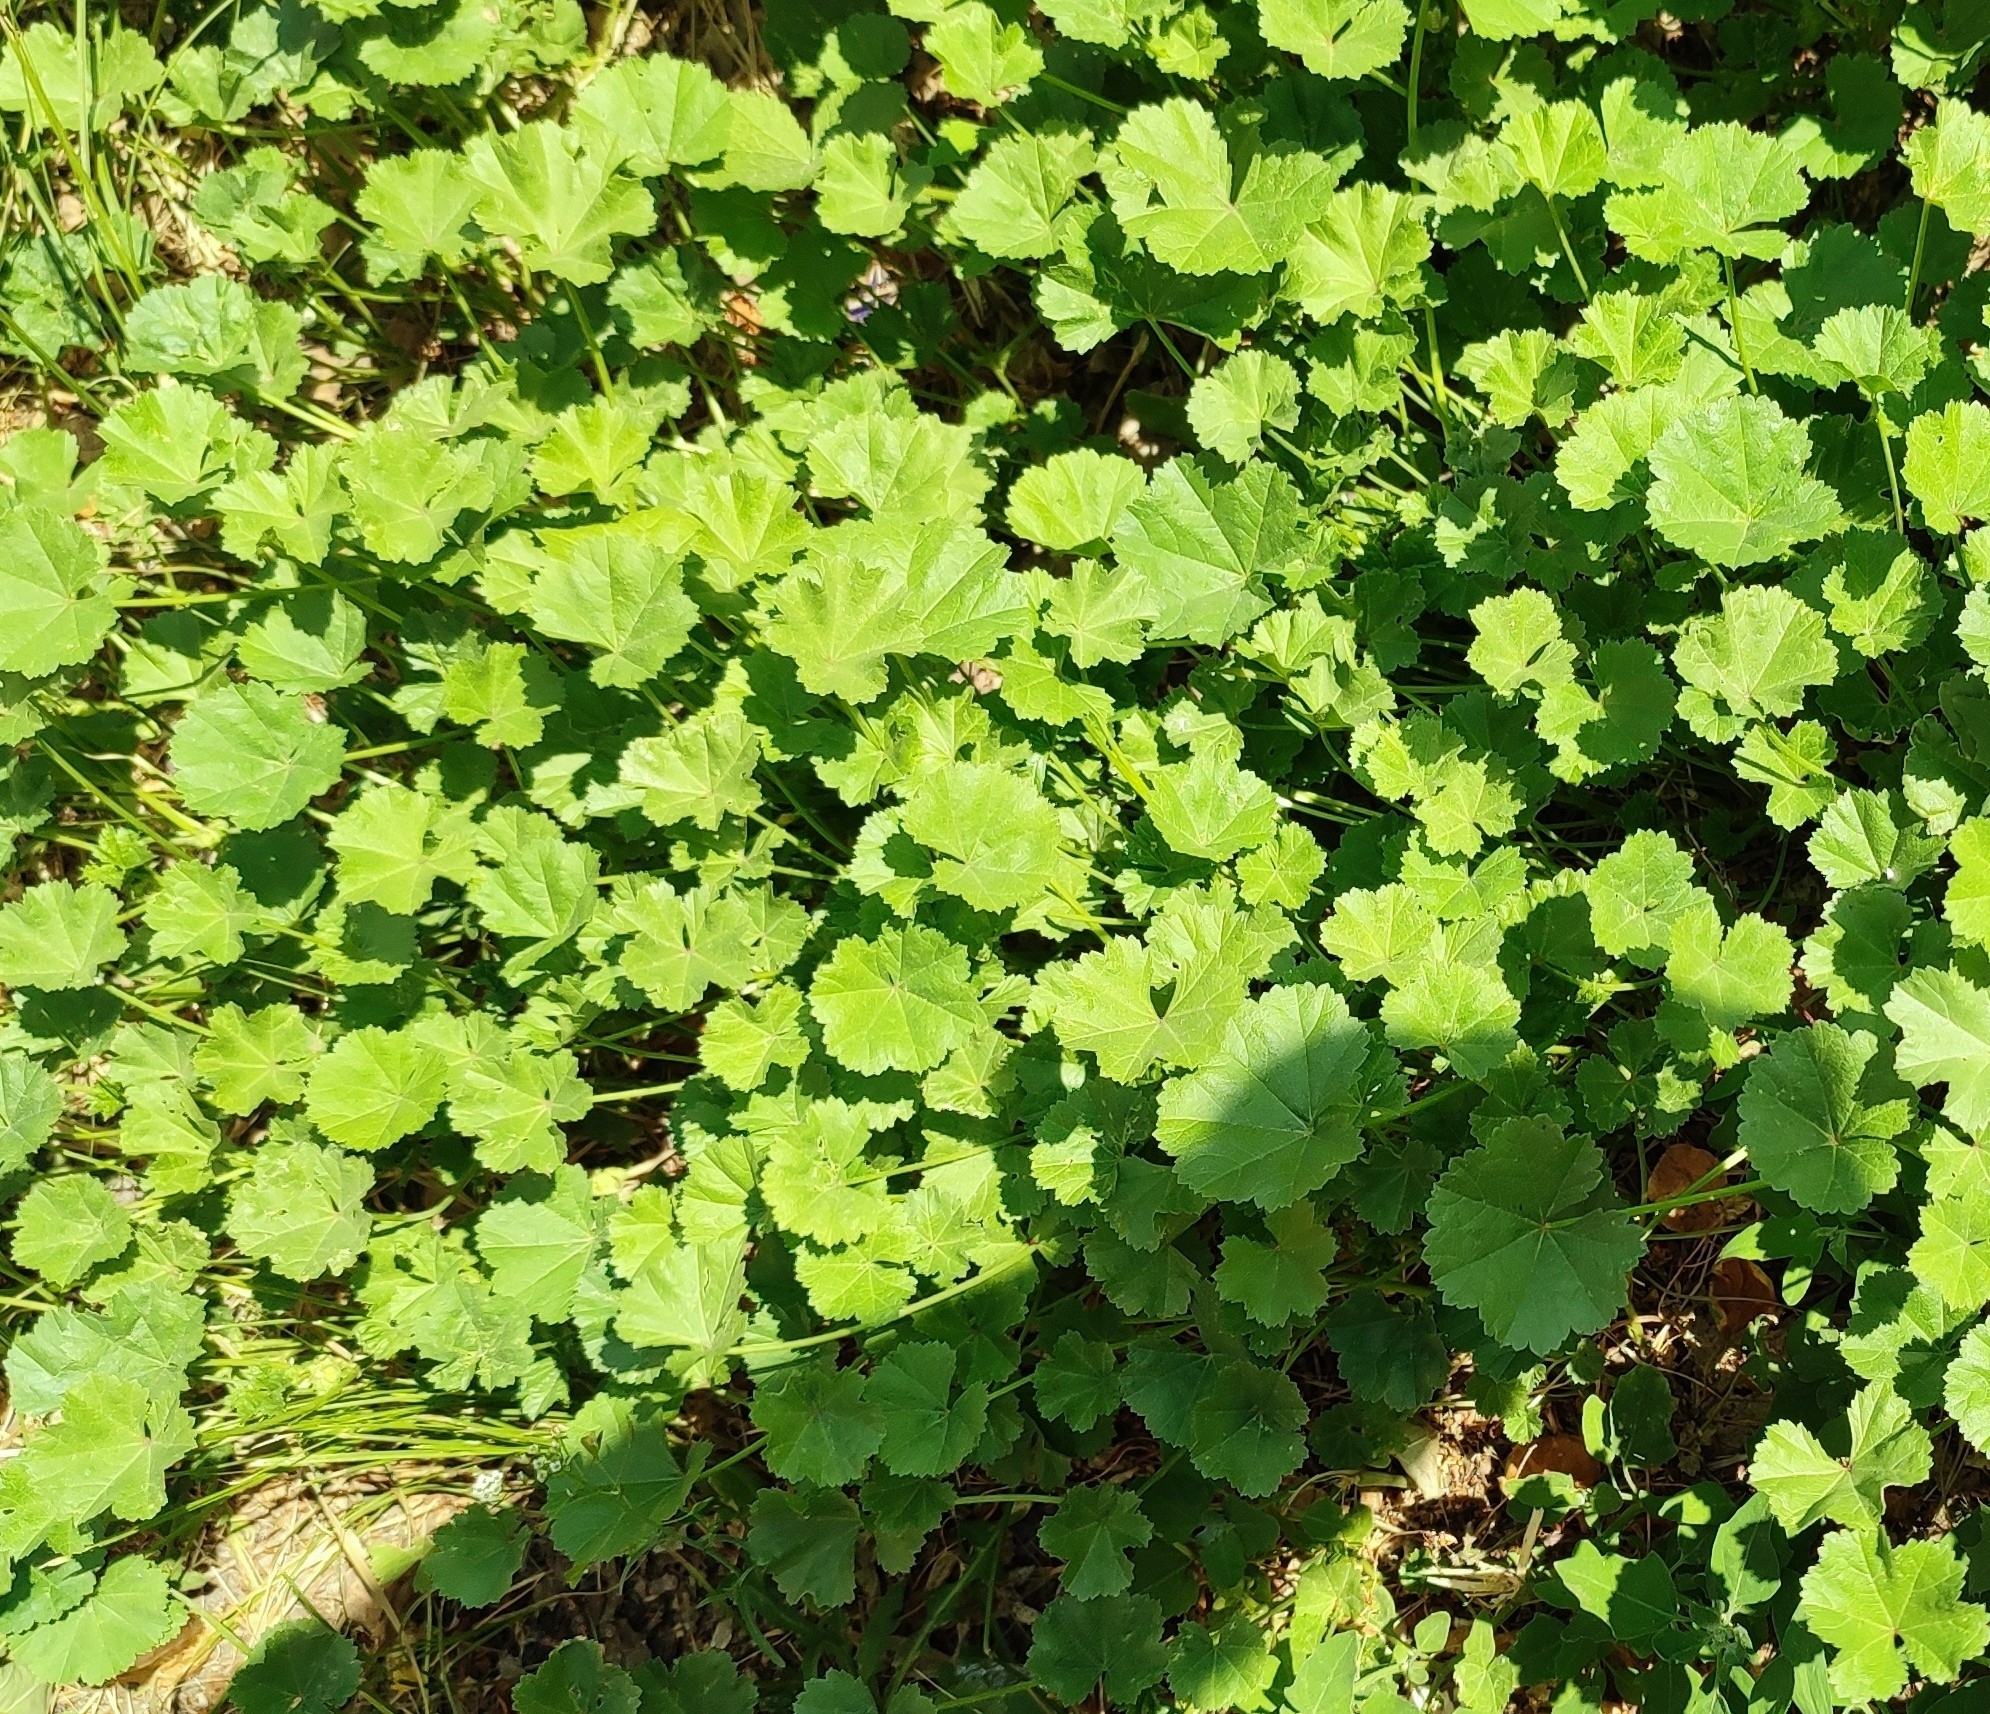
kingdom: Plantae
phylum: Tracheophyta
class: Magnoliopsida
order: Malvales
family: Malvaceae
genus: Malva
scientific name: Malva pusilla
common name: Small mallow
